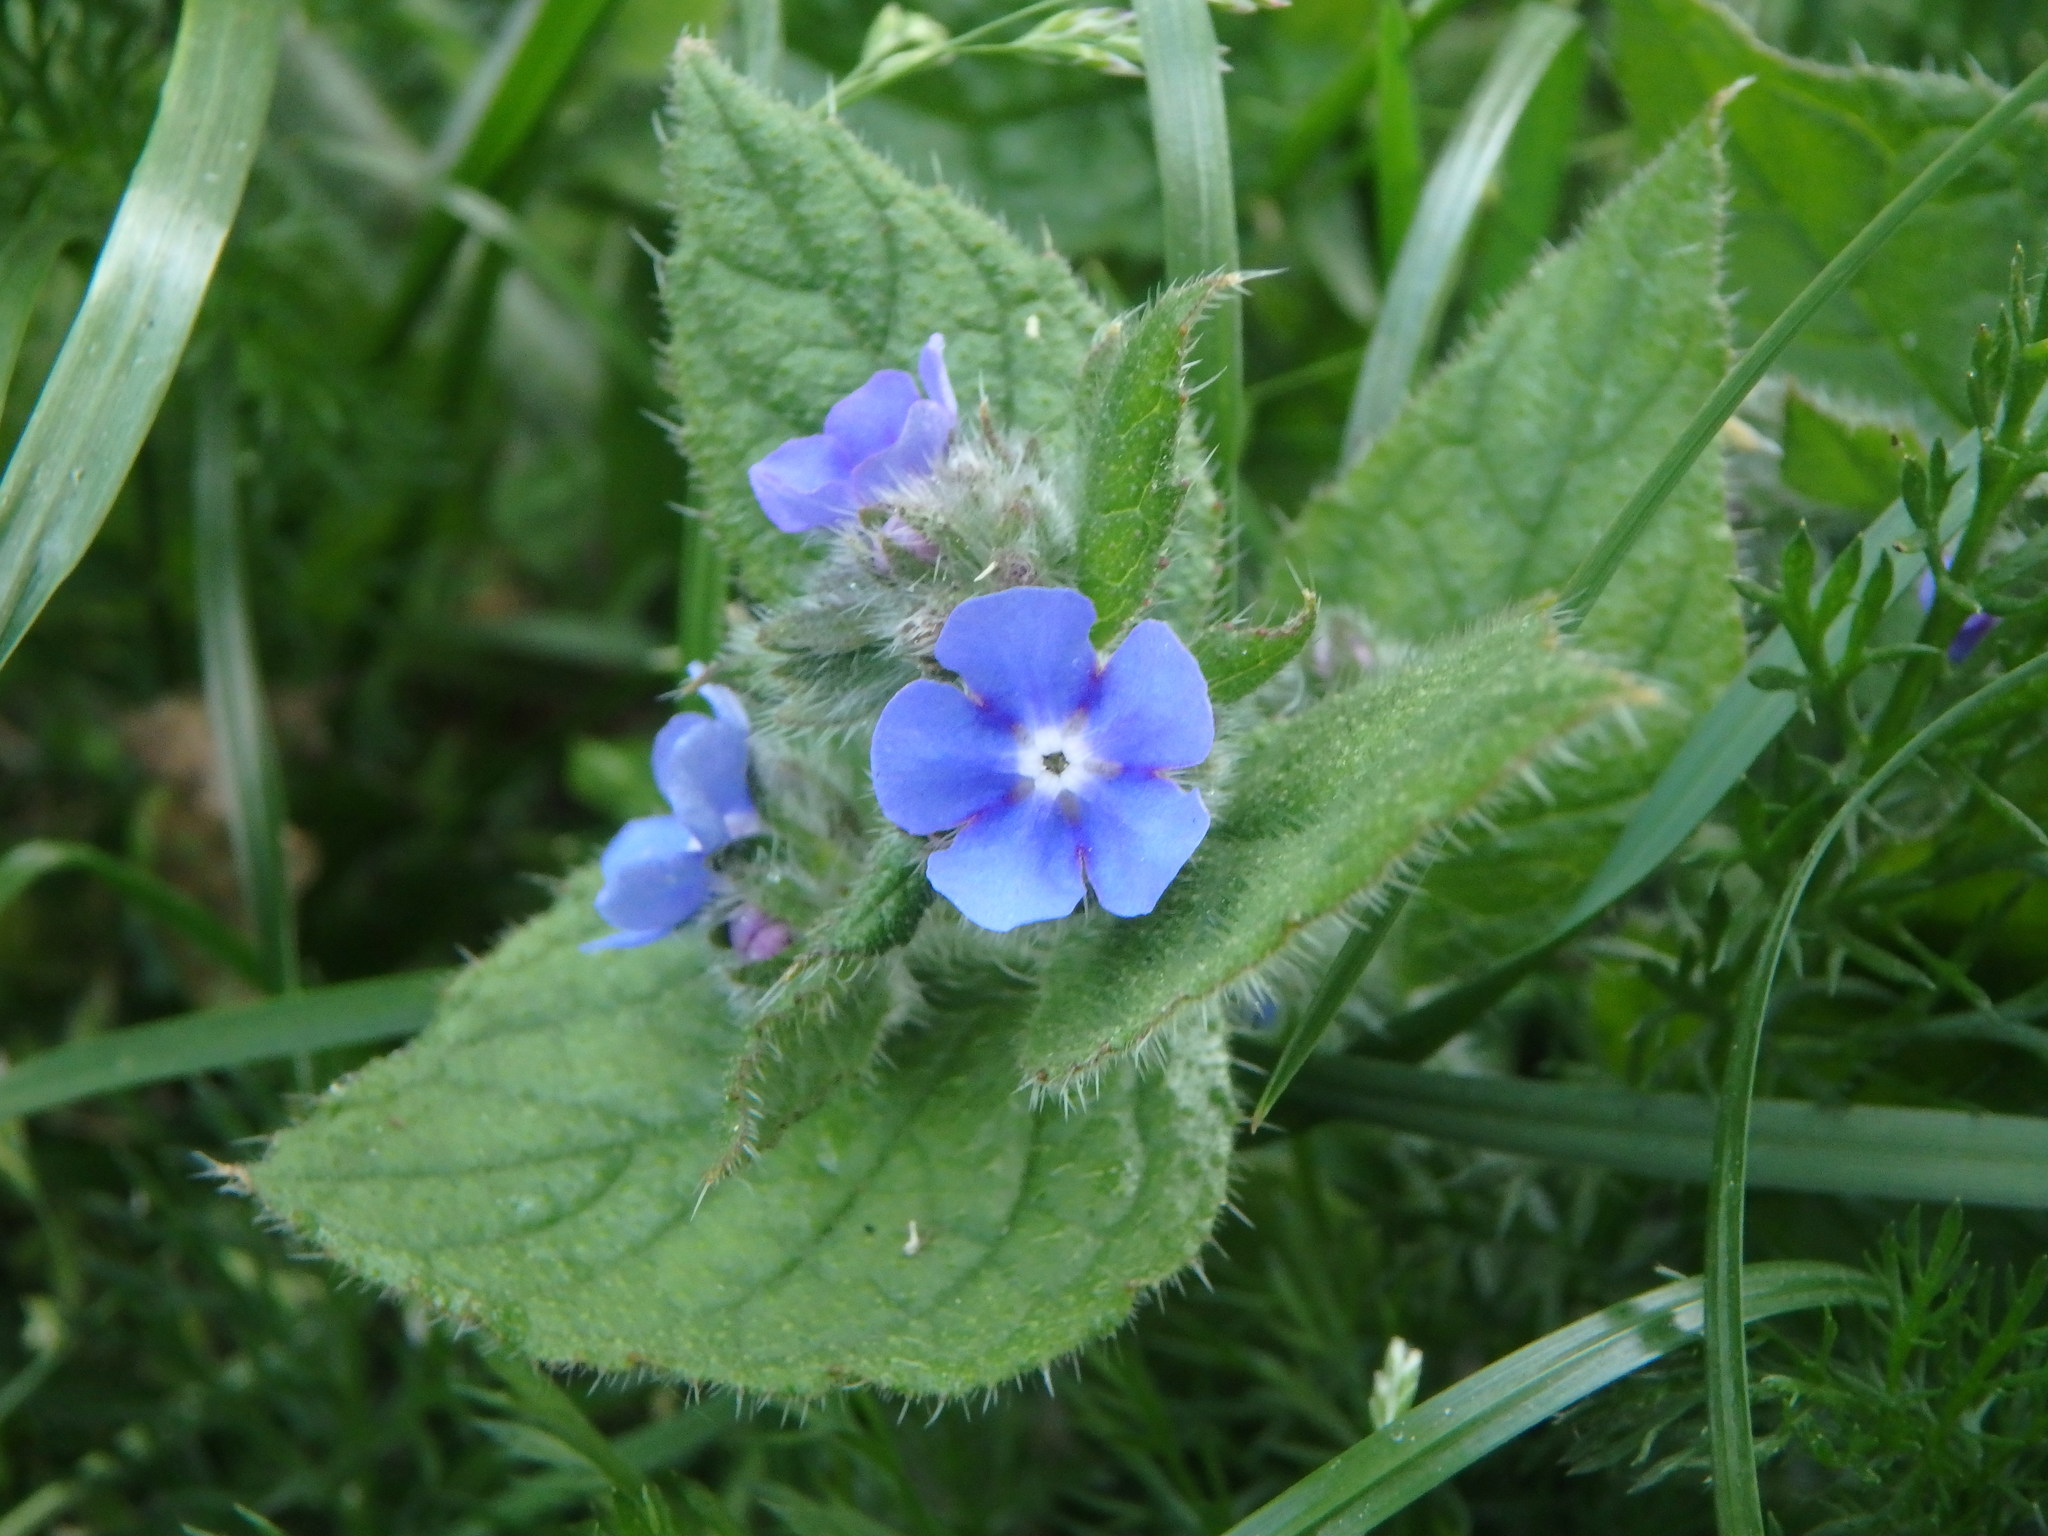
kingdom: Plantae
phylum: Tracheophyta
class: Magnoliopsida
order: Boraginales
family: Boraginaceae
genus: Pentaglottis
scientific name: Pentaglottis sempervirens
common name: Green alkanet
